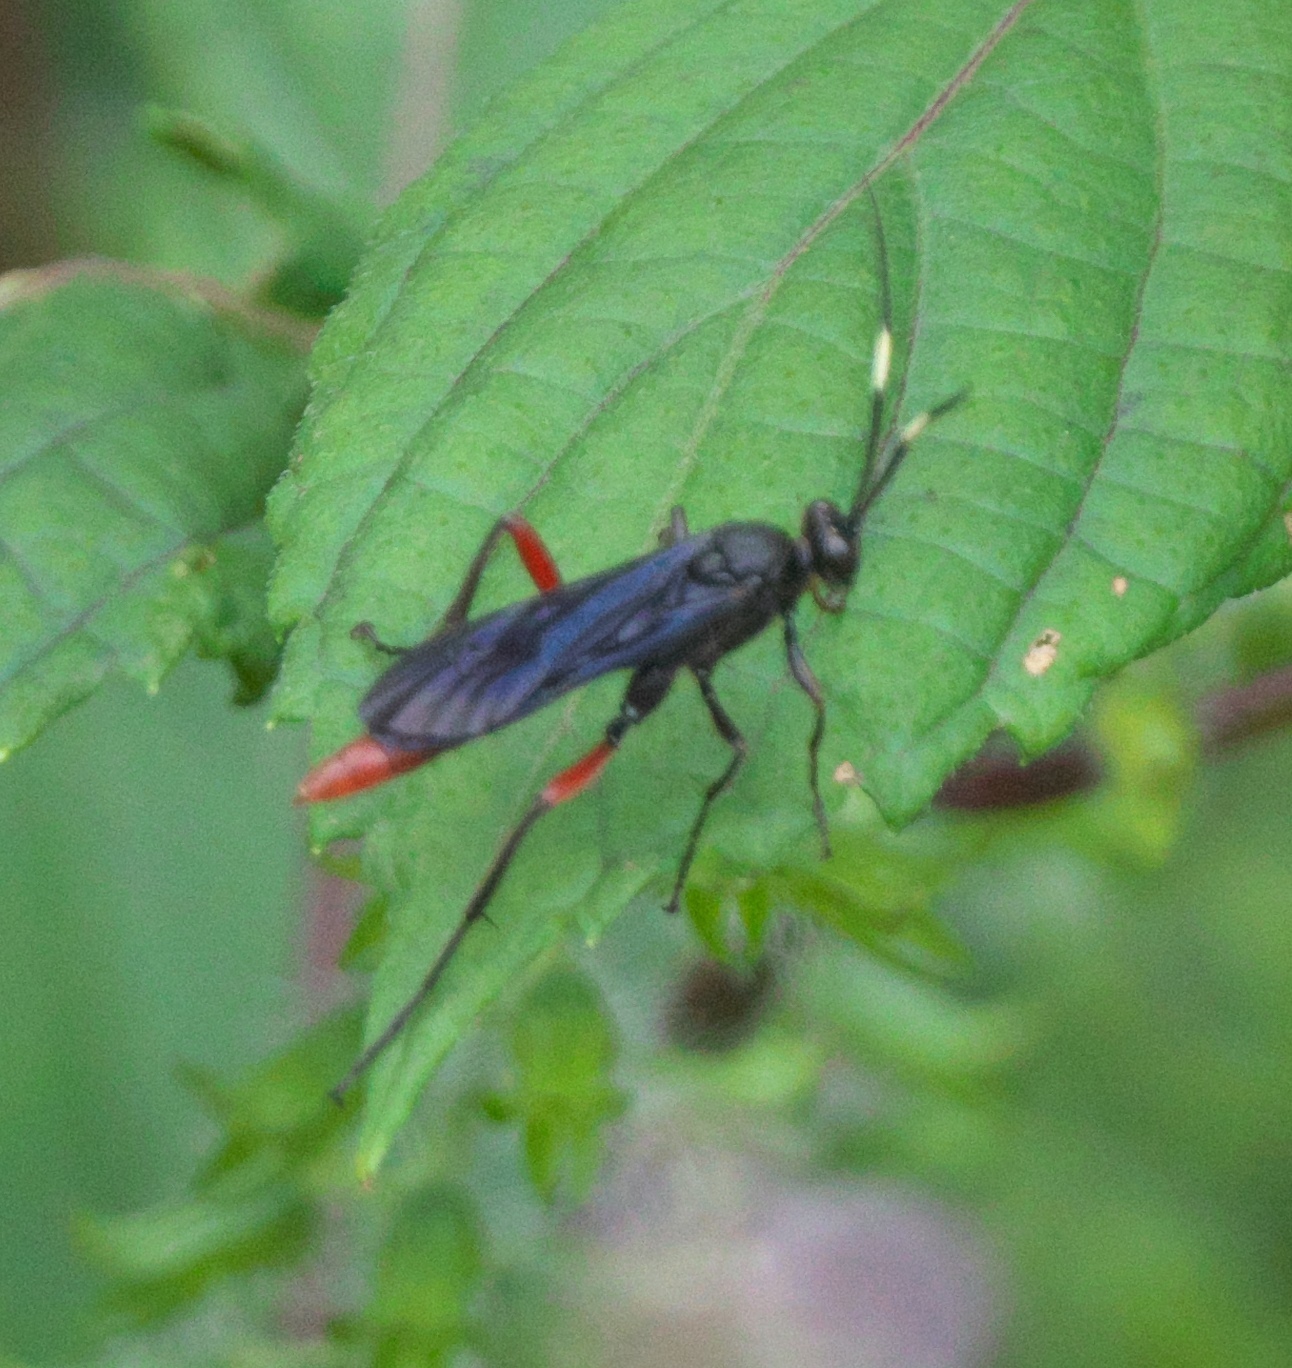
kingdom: Animalia
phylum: Arthropoda
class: Insecta
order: Hymenoptera
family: Ichneumonidae
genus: Limonethe
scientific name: Limonethe maurator
